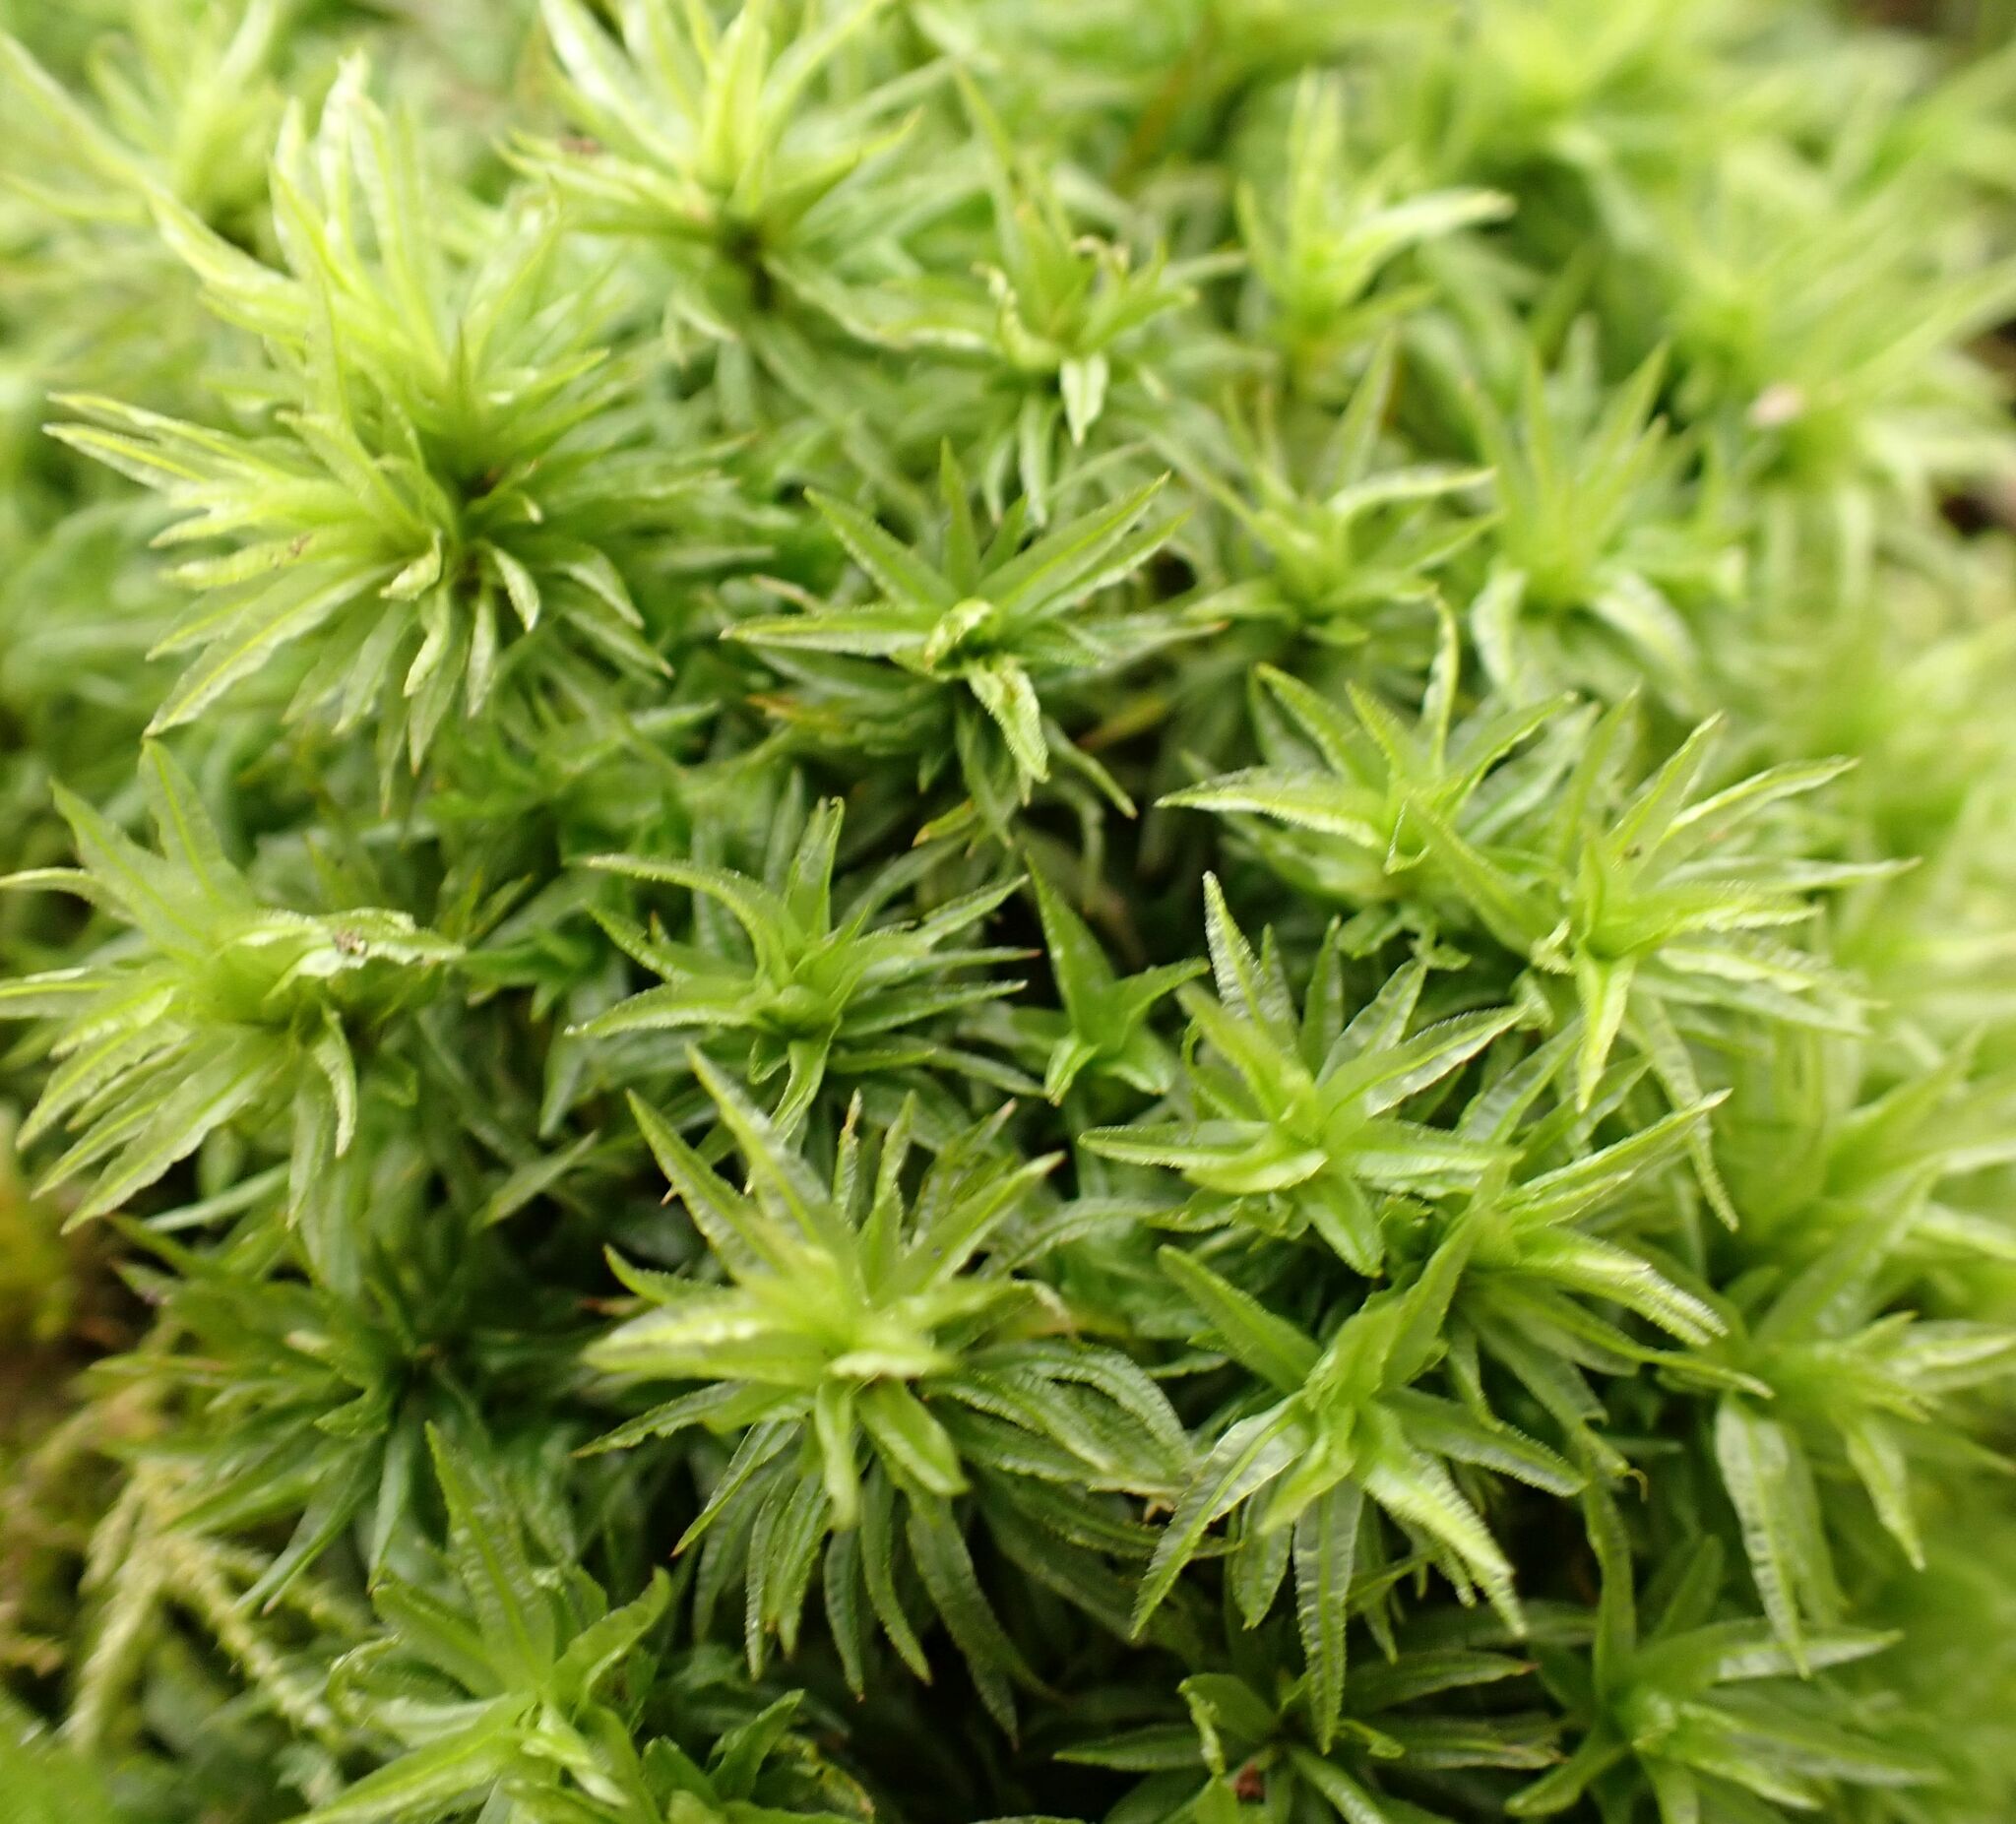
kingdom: Plantae
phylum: Bryophyta
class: Polytrichopsida
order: Polytrichales
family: Polytrichaceae
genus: Atrichum
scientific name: Atrichum undulatum
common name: Common smoothcap
